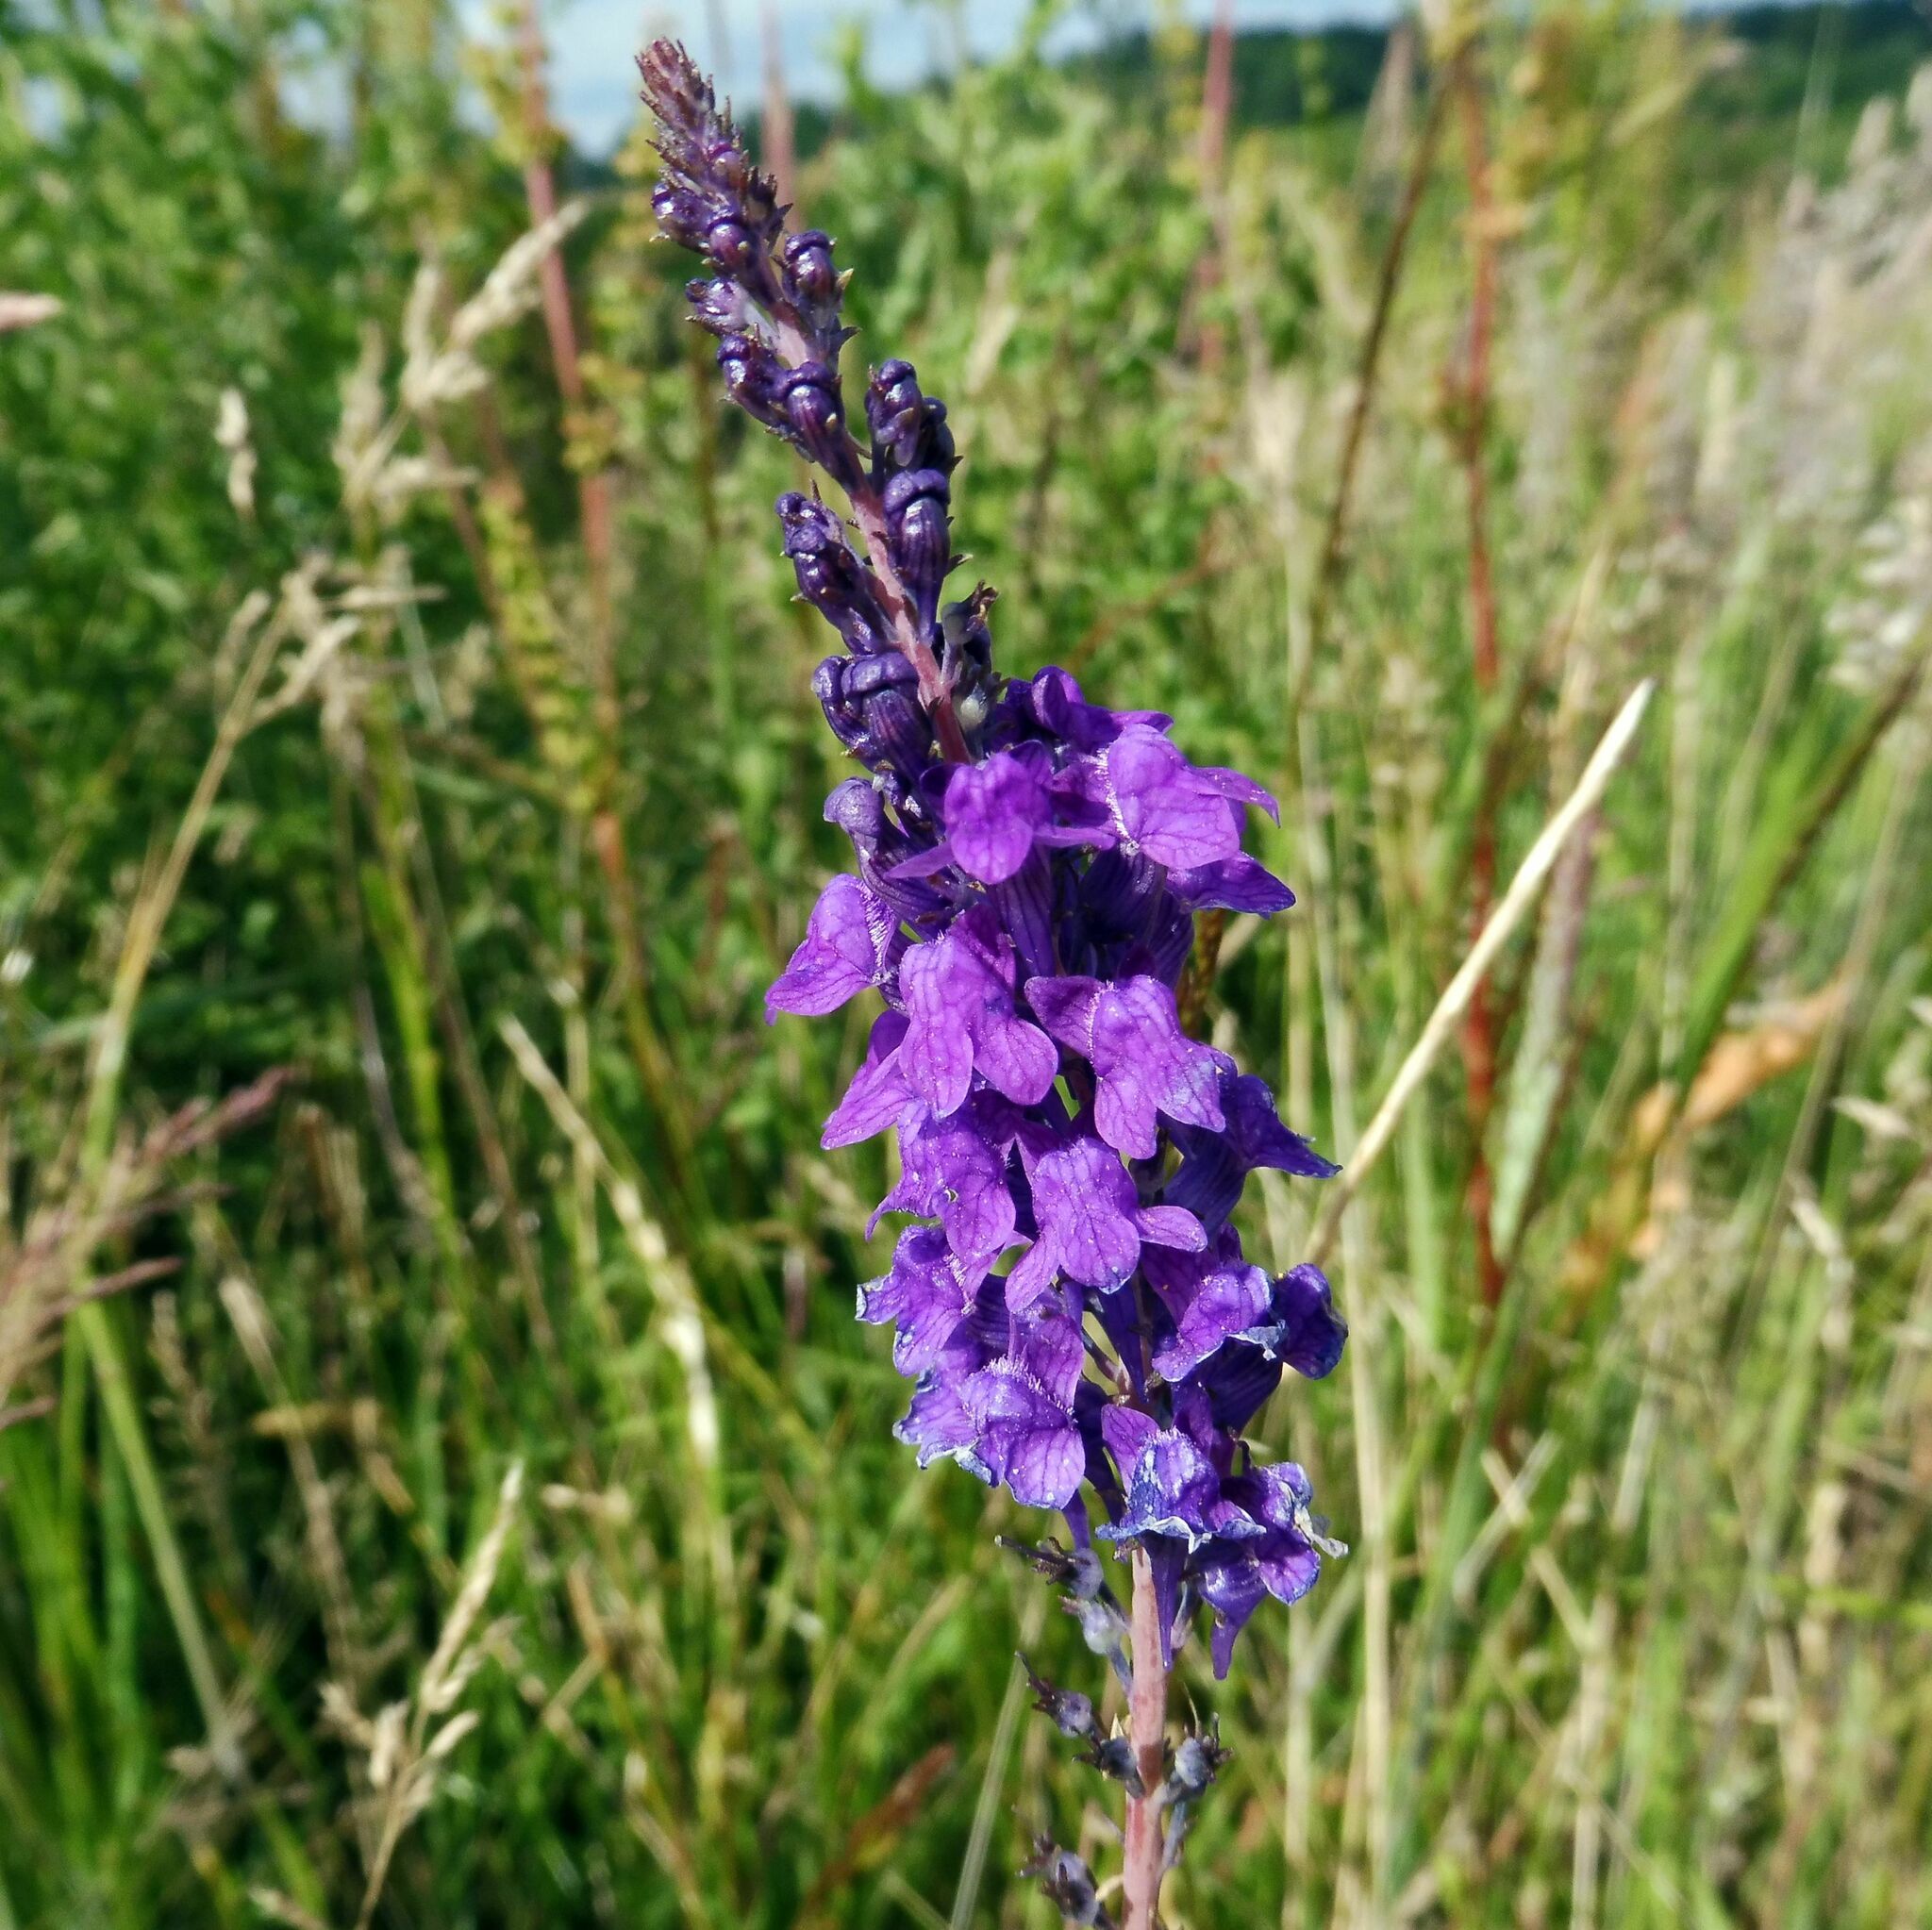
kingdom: Plantae
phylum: Tracheophyta
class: Magnoliopsida
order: Lamiales
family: Plantaginaceae
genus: Linaria
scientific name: Linaria purpurea
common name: Purple toadflax
